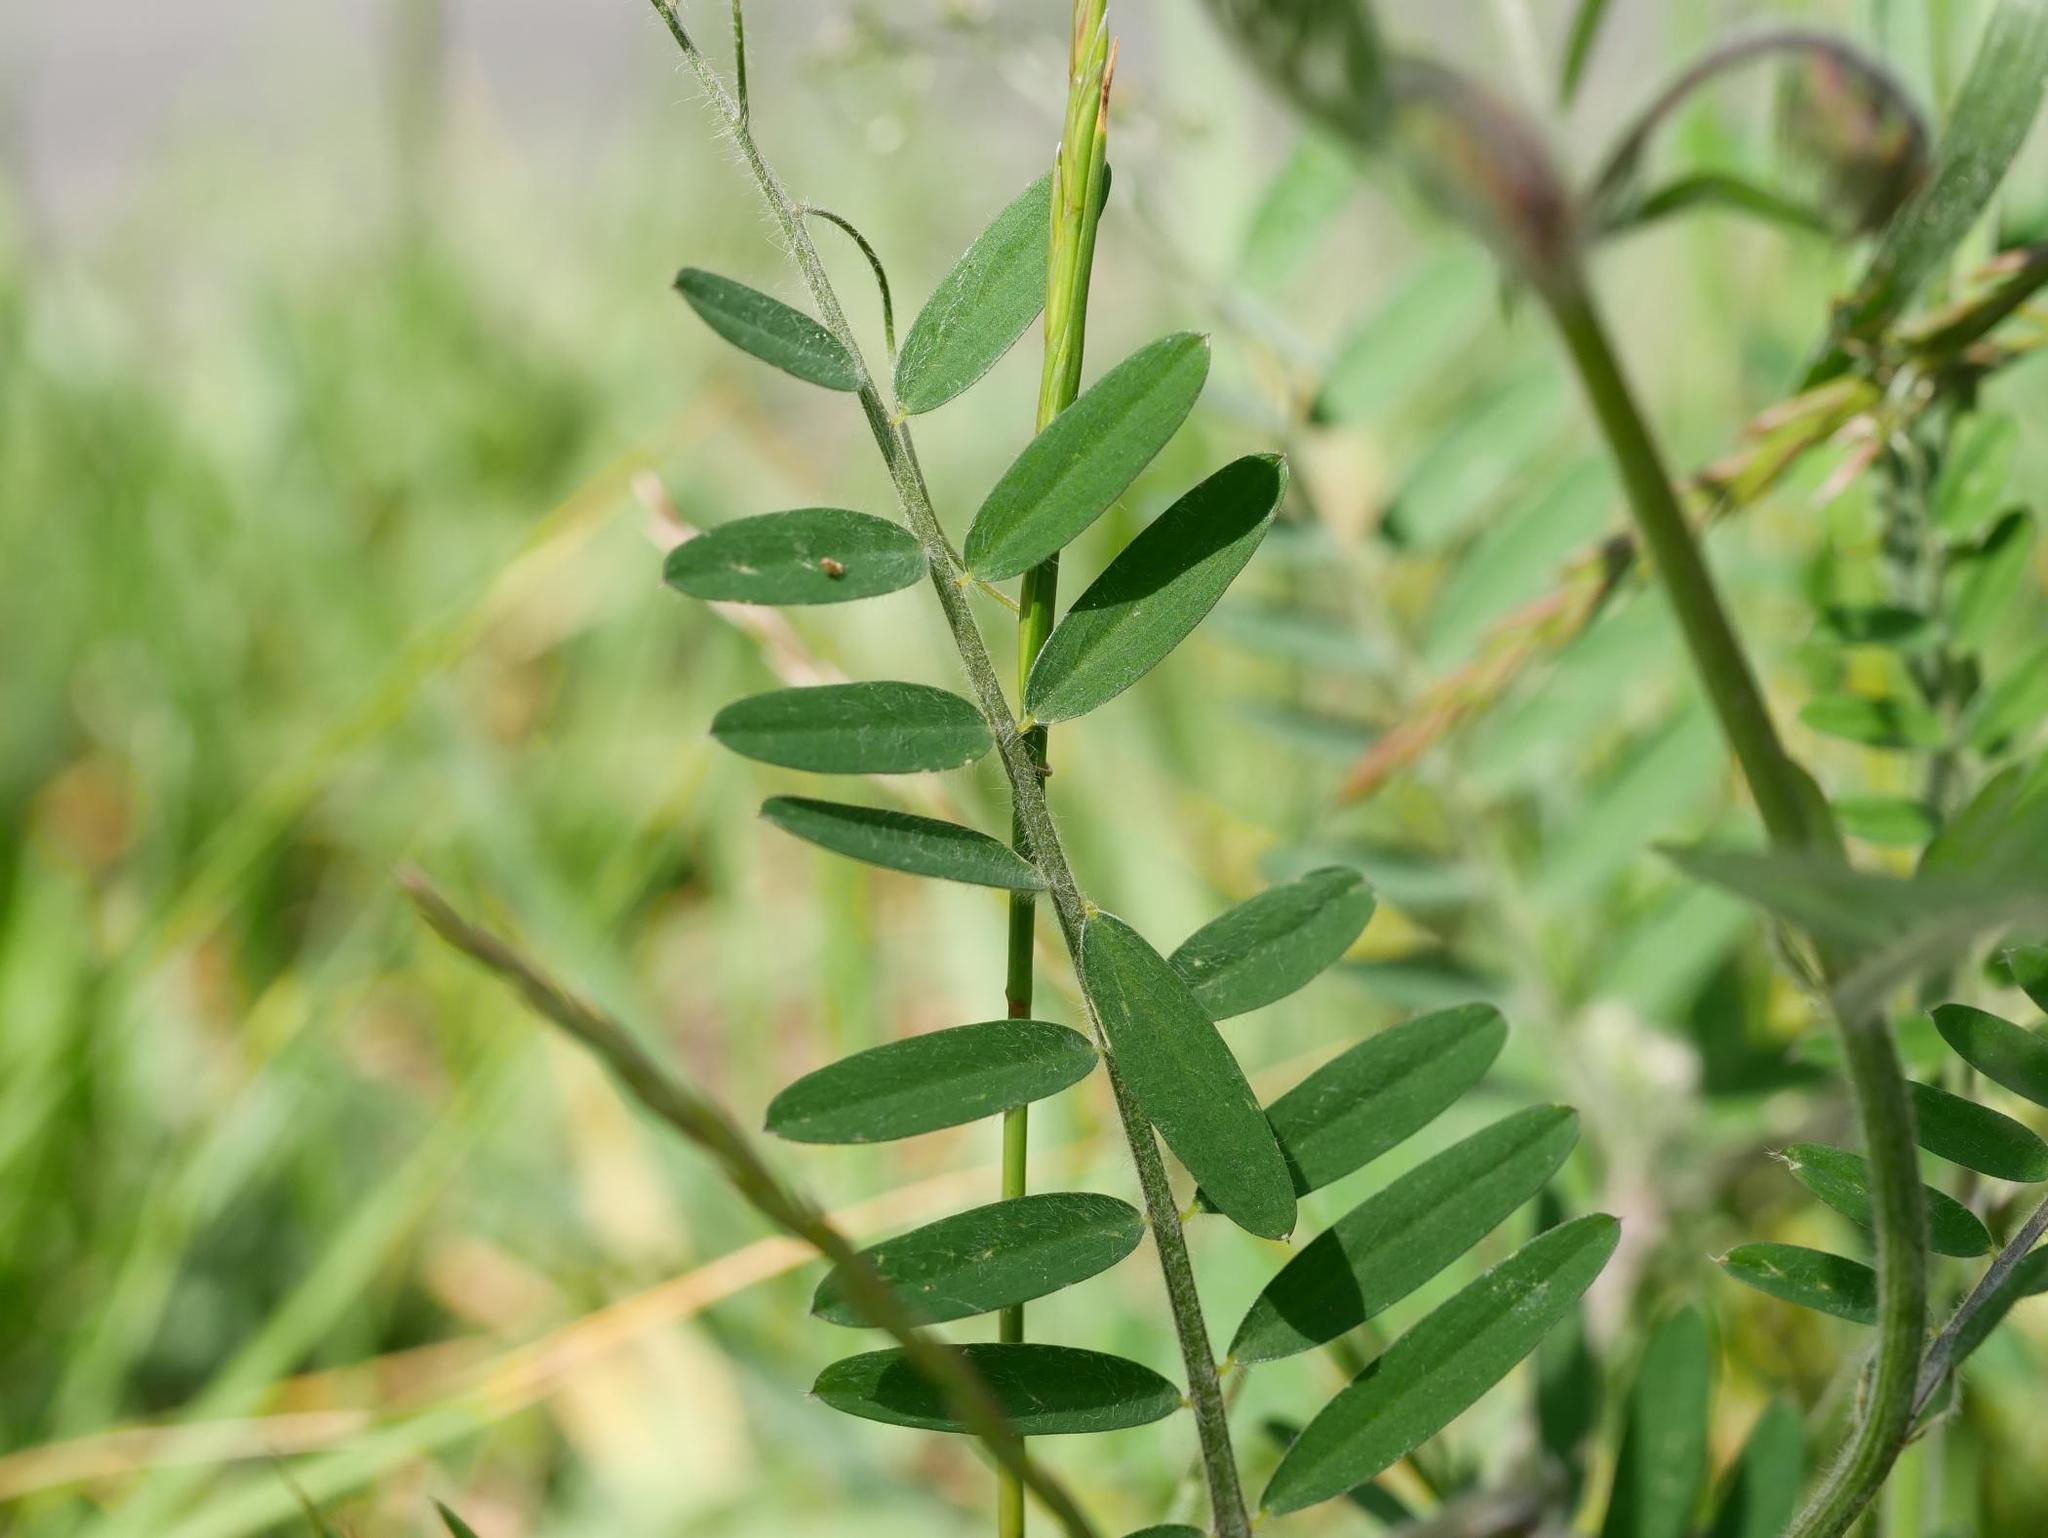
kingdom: Plantae
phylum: Tracheophyta
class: Magnoliopsida
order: Fabales
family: Fabaceae
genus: Vicia
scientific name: Vicia villosa
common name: Fodder vetch
